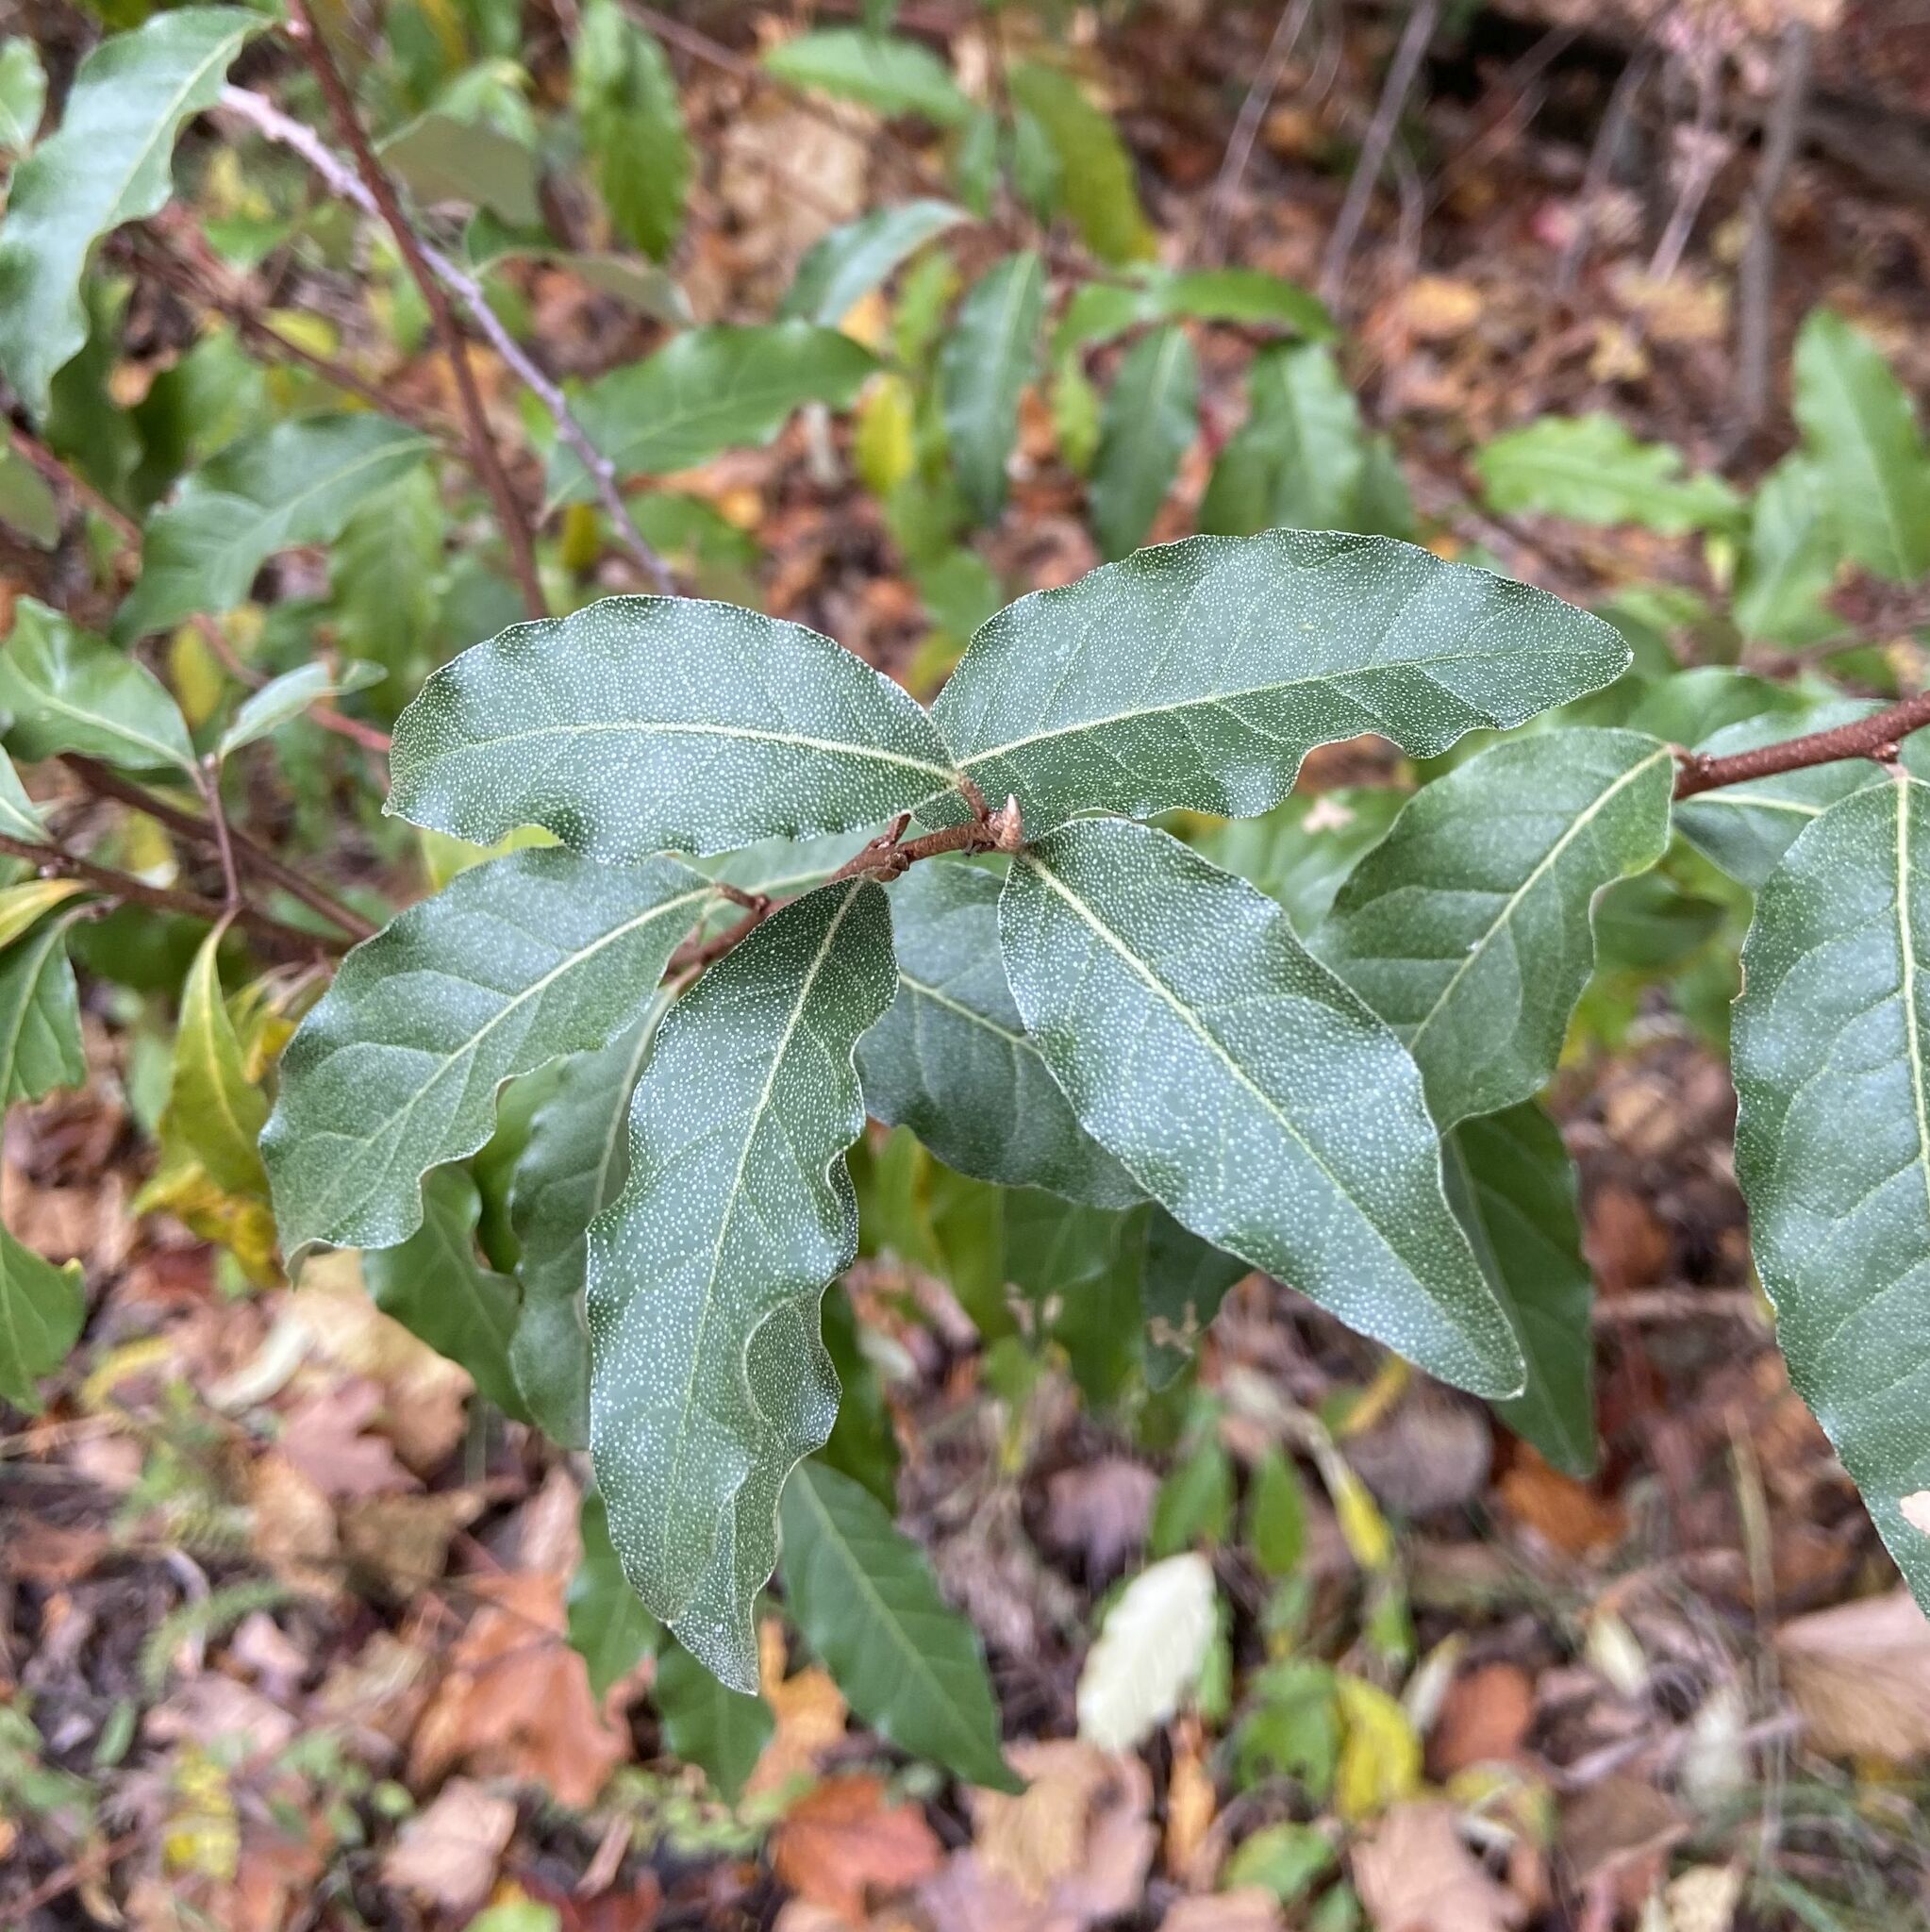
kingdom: Plantae
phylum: Tracheophyta
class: Magnoliopsida
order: Rosales
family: Elaeagnaceae
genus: Elaeagnus
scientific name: Elaeagnus umbellata
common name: Autumn olive
